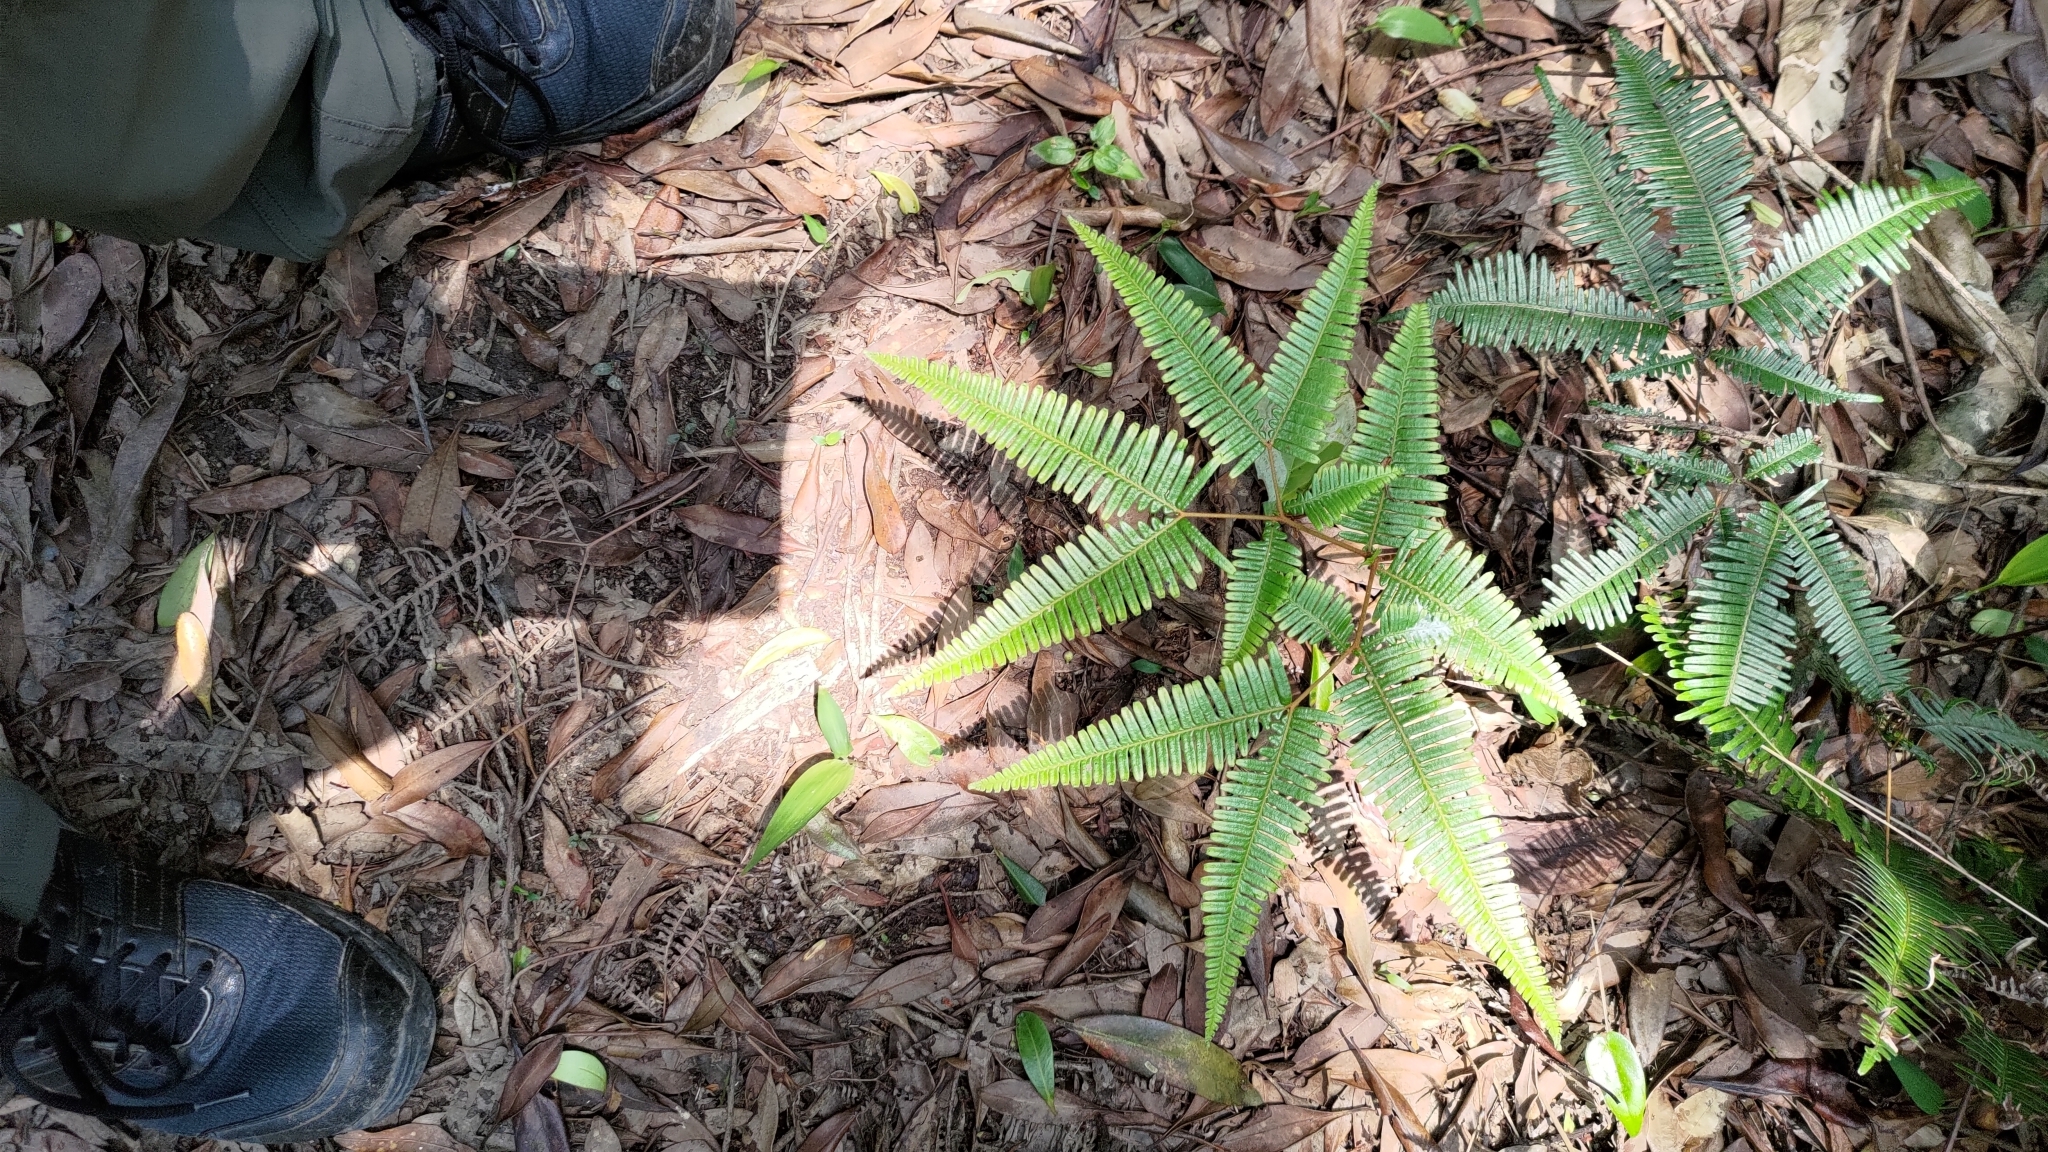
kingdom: Plantae
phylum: Tracheophyta
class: Polypodiopsida
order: Gleicheniales
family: Gleicheniaceae
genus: Dicranopteris
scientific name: Dicranopteris linearis
